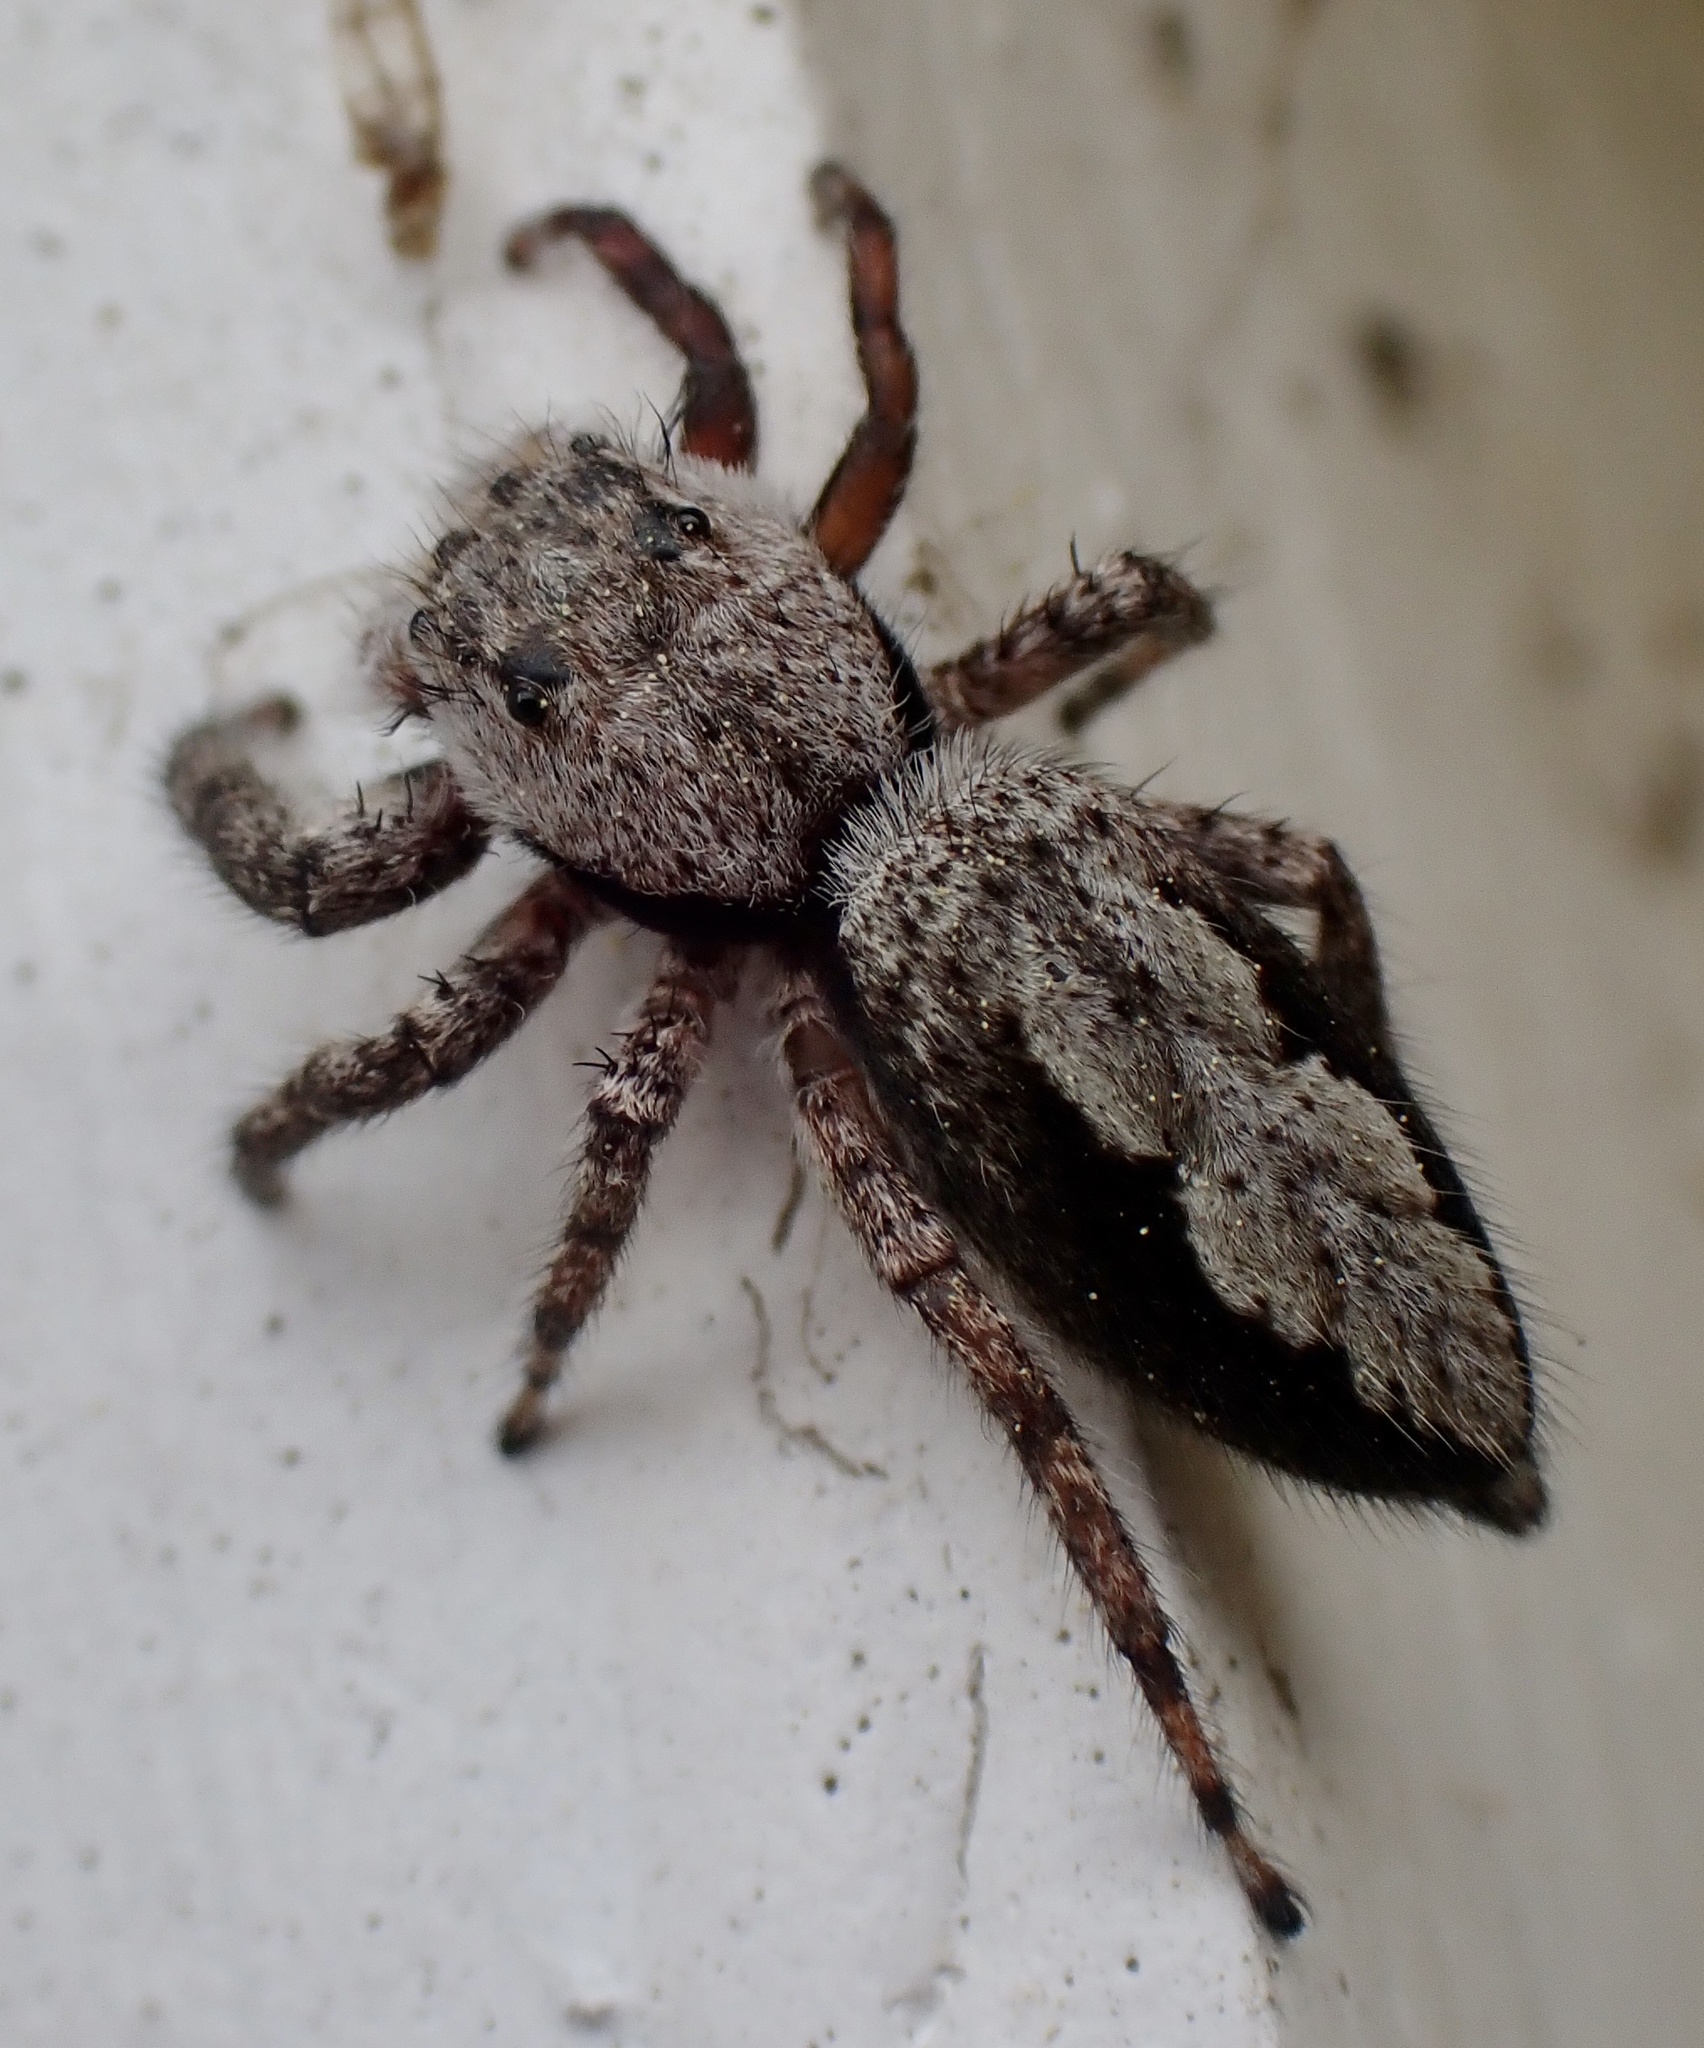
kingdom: Animalia
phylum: Arthropoda
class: Arachnida
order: Araneae
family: Salticidae
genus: Platycryptus
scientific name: Platycryptus undatus
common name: Tan jumping spider
